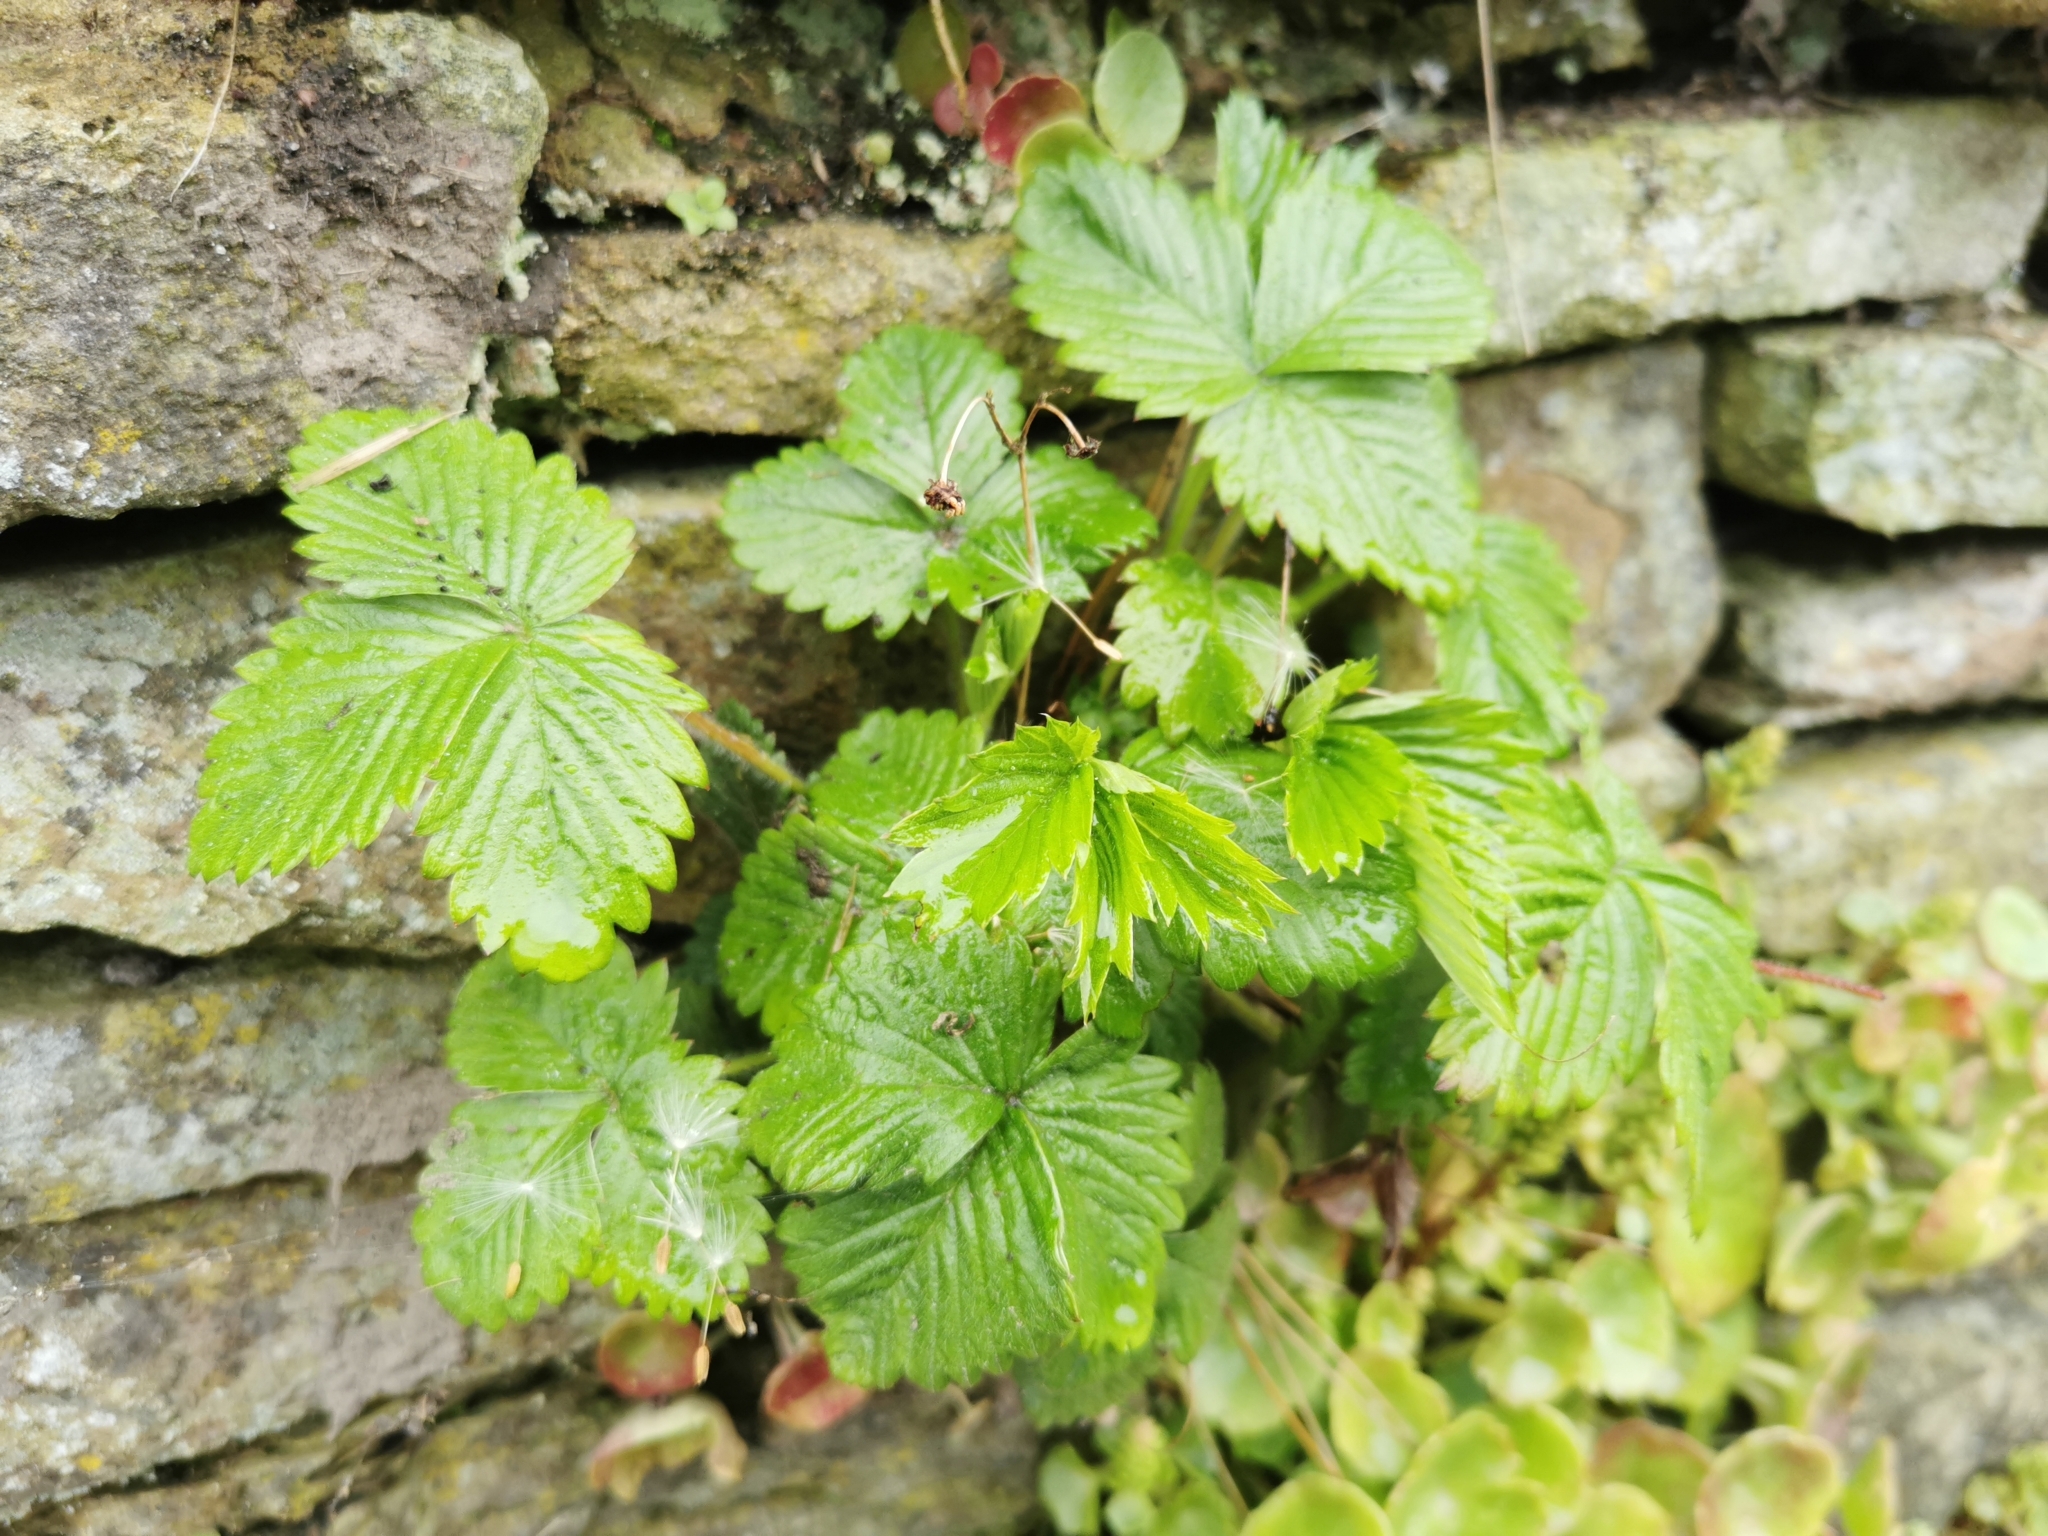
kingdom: Plantae
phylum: Tracheophyta
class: Magnoliopsida
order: Rosales
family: Rosaceae
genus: Fragaria
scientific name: Fragaria vesca
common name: Wild strawberry
